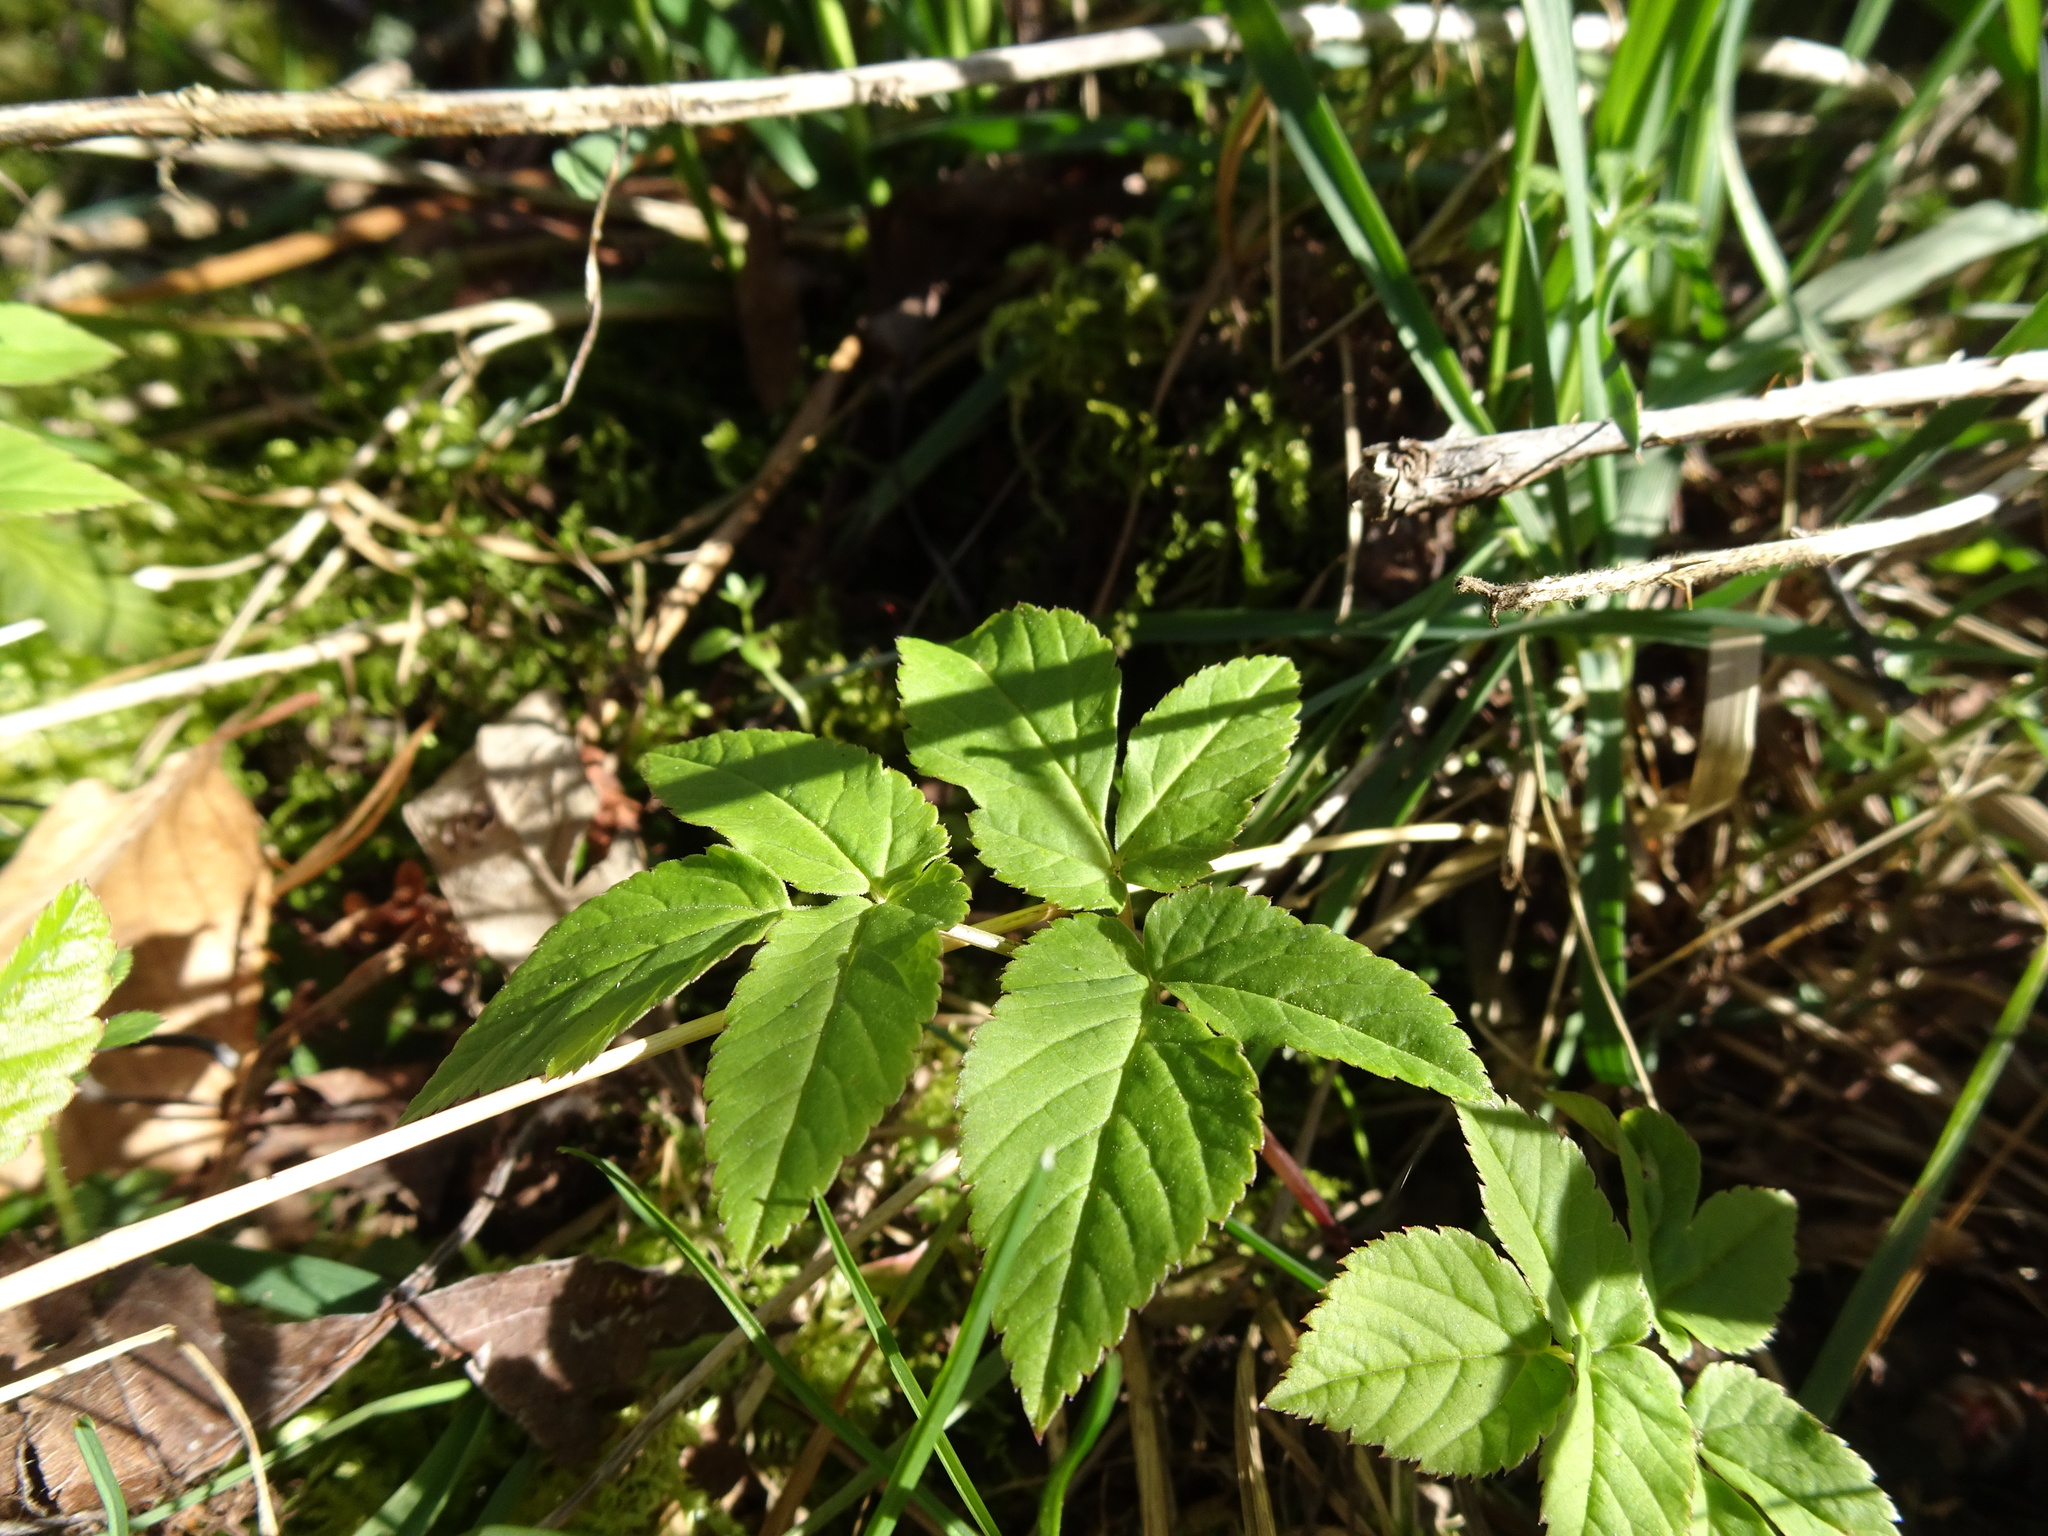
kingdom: Plantae
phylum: Tracheophyta
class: Magnoliopsida
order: Apiales
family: Apiaceae
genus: Aegopodium
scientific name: Aegopodium podagraria
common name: Ground-elder
